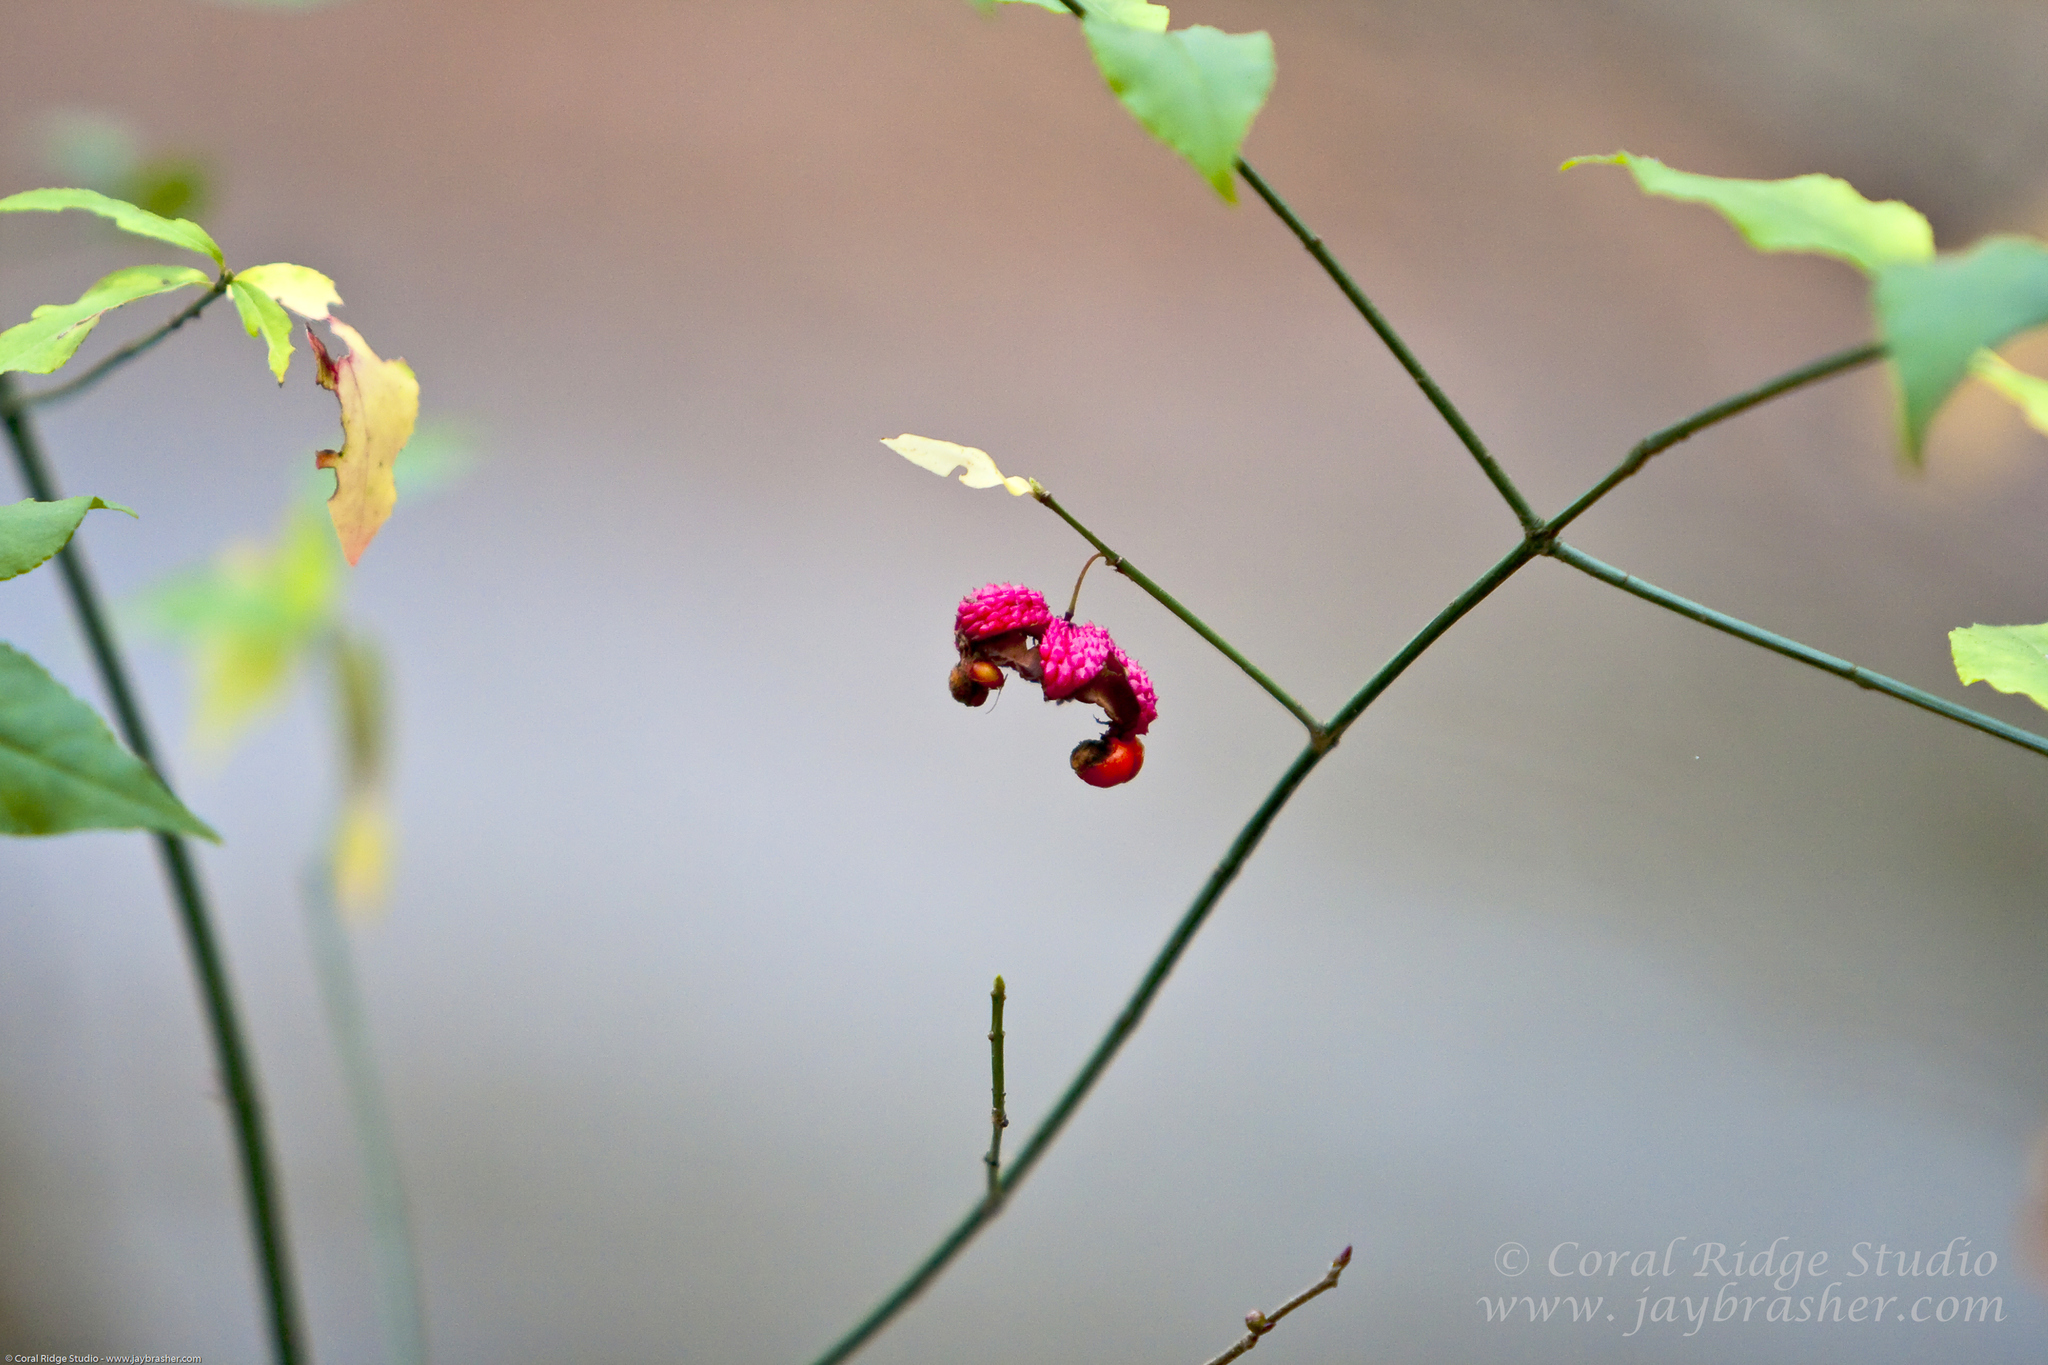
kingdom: Plantae
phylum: Tracheophyta
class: Magnoliopsida
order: Celastrales
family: Celastraceae
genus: Euonymus
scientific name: Euonymus americanus
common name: Bursting-heart
